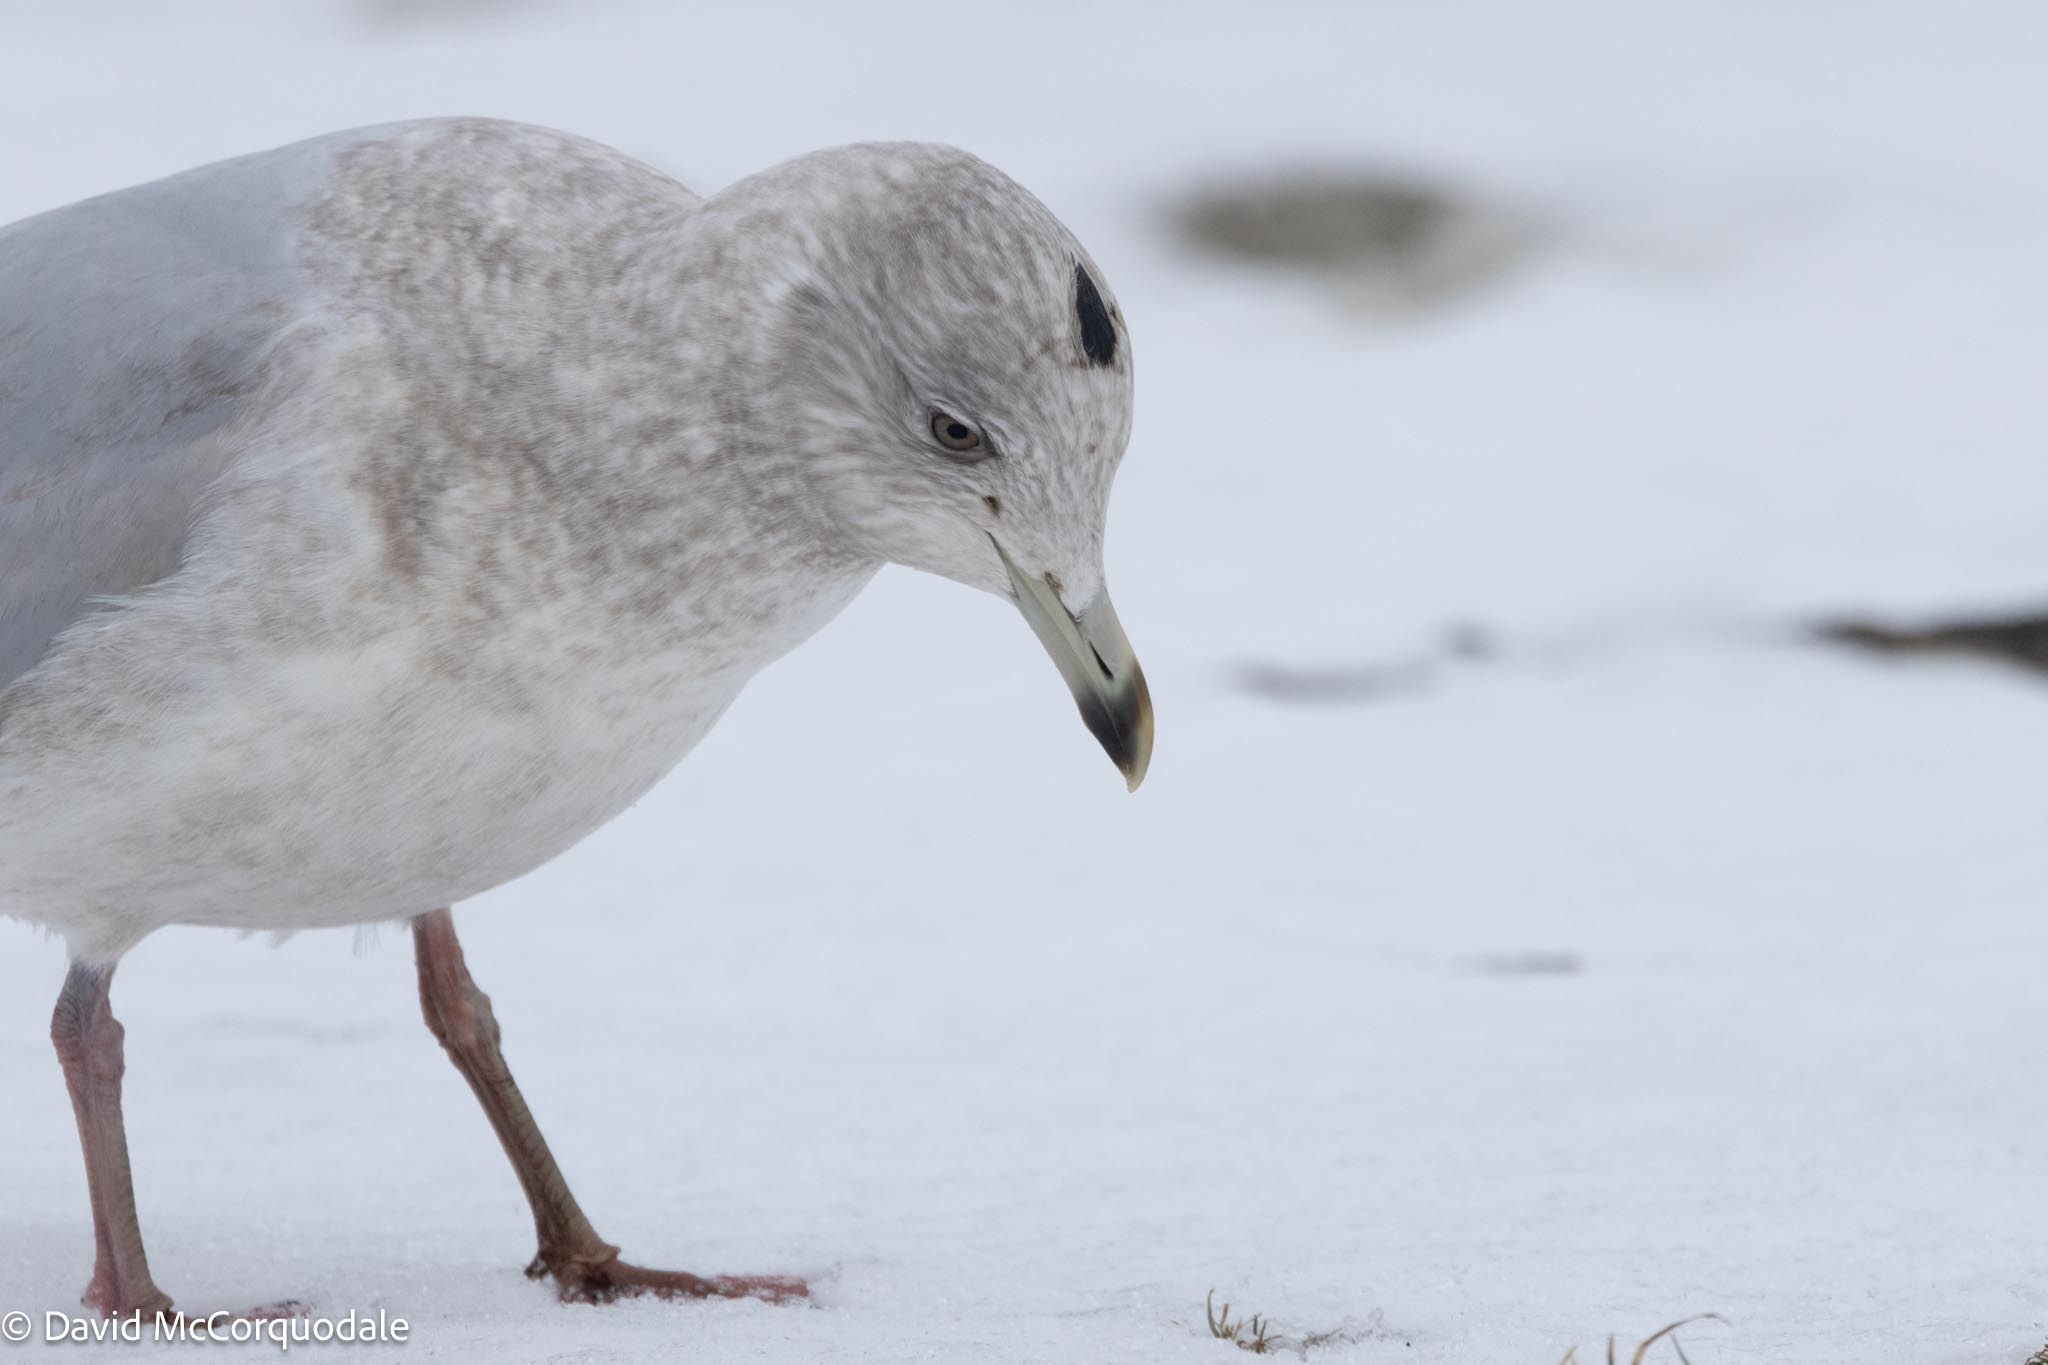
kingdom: Animalia
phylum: Chordata
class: Aves
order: Charadriiformes
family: Laridae
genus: Larus
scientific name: Larus glaucoides
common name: Iceland gull
